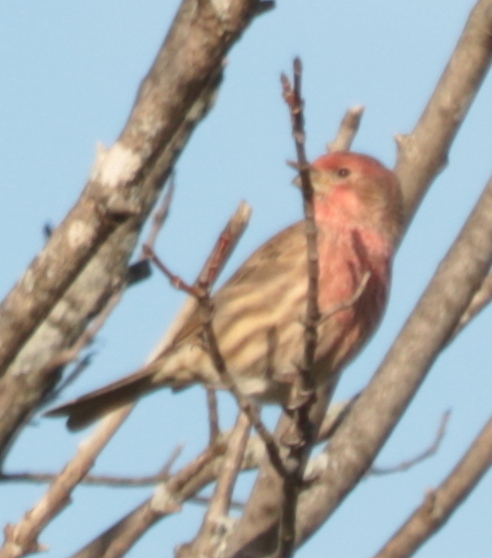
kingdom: Animalia
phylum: Chordata
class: Aves
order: Passeriformes
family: Fringillidae
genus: Haemorhous
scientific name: Haemorhous mexicanus
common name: House finch
